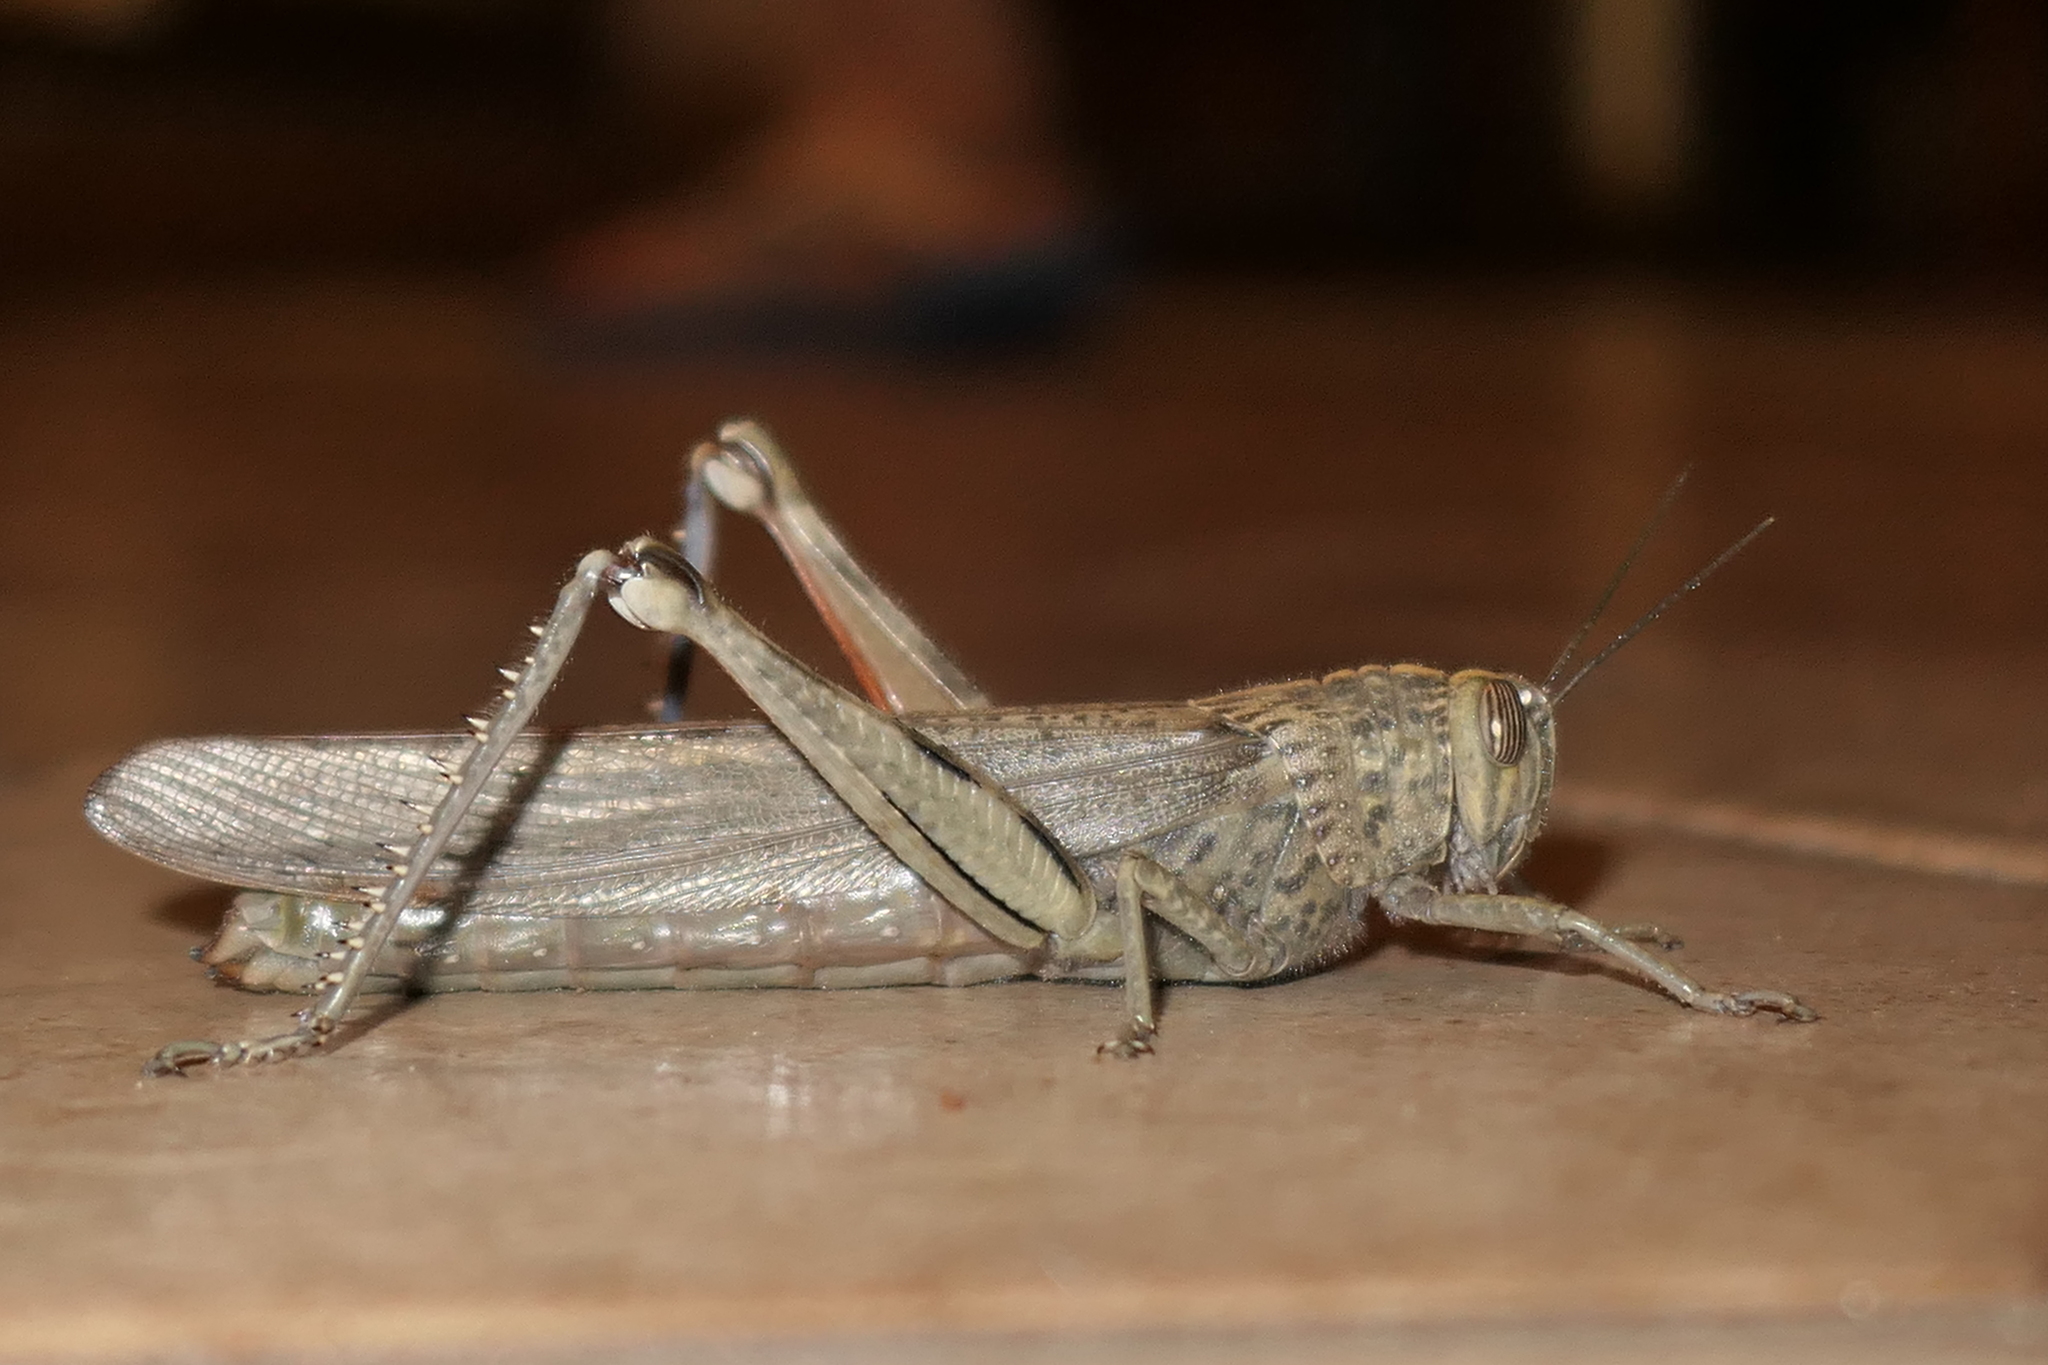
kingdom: Animalia
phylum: Arthropoda
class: Insecta
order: Orthoptera
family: Acrididae
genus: Anacridium
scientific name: Anacridium aegyptium
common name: Egyptian grasshopper
